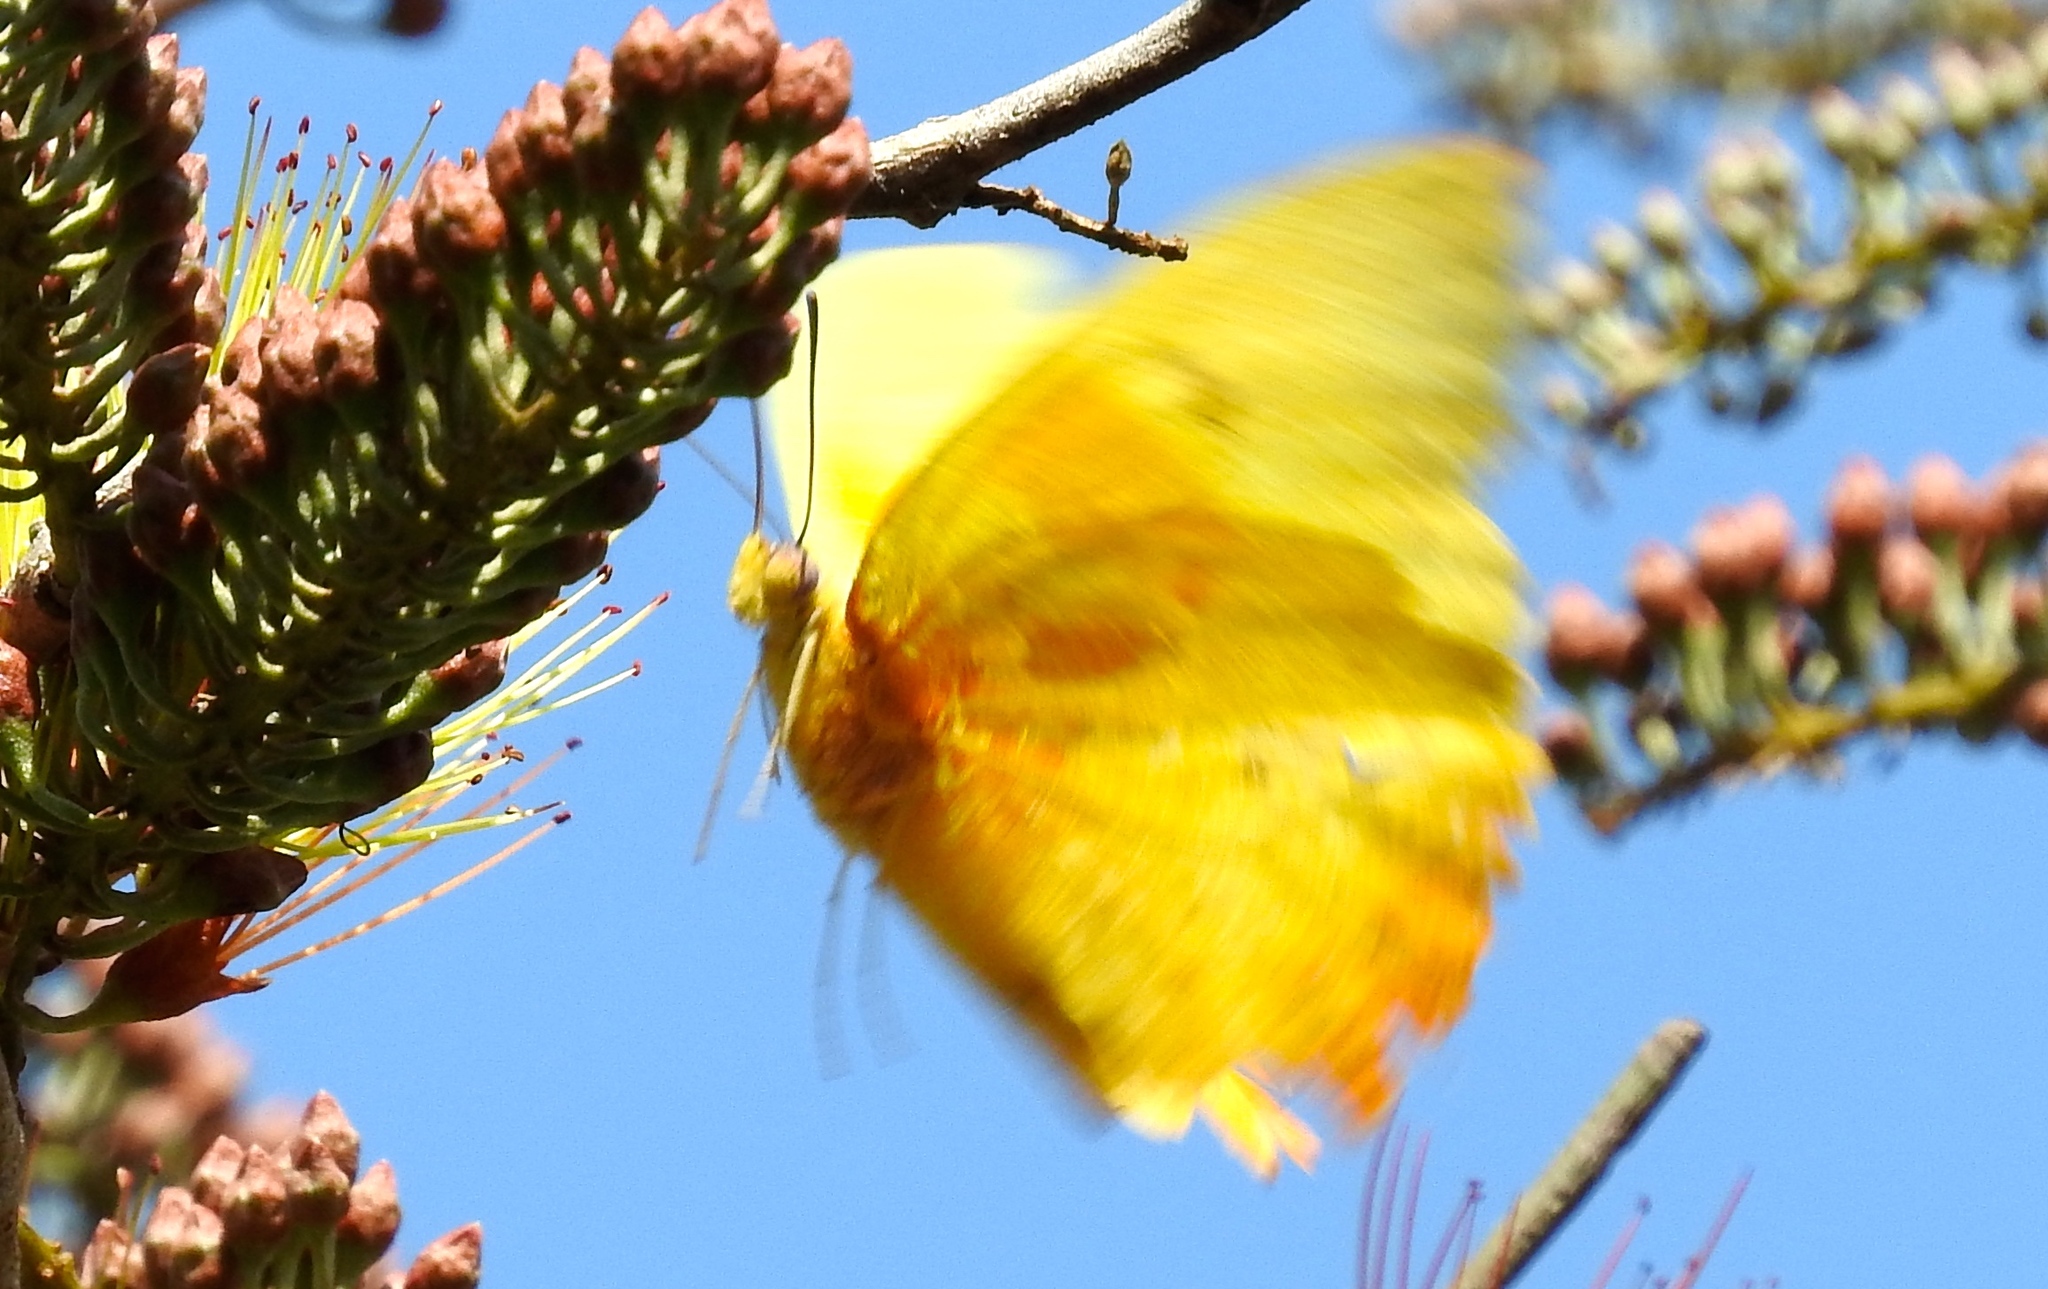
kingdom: Animalia
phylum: Arthropoda
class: Insecta
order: Lepidoptera
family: Pieridae
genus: Phoebis
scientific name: Phoebis philea
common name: Orange-barred giant sulphur
